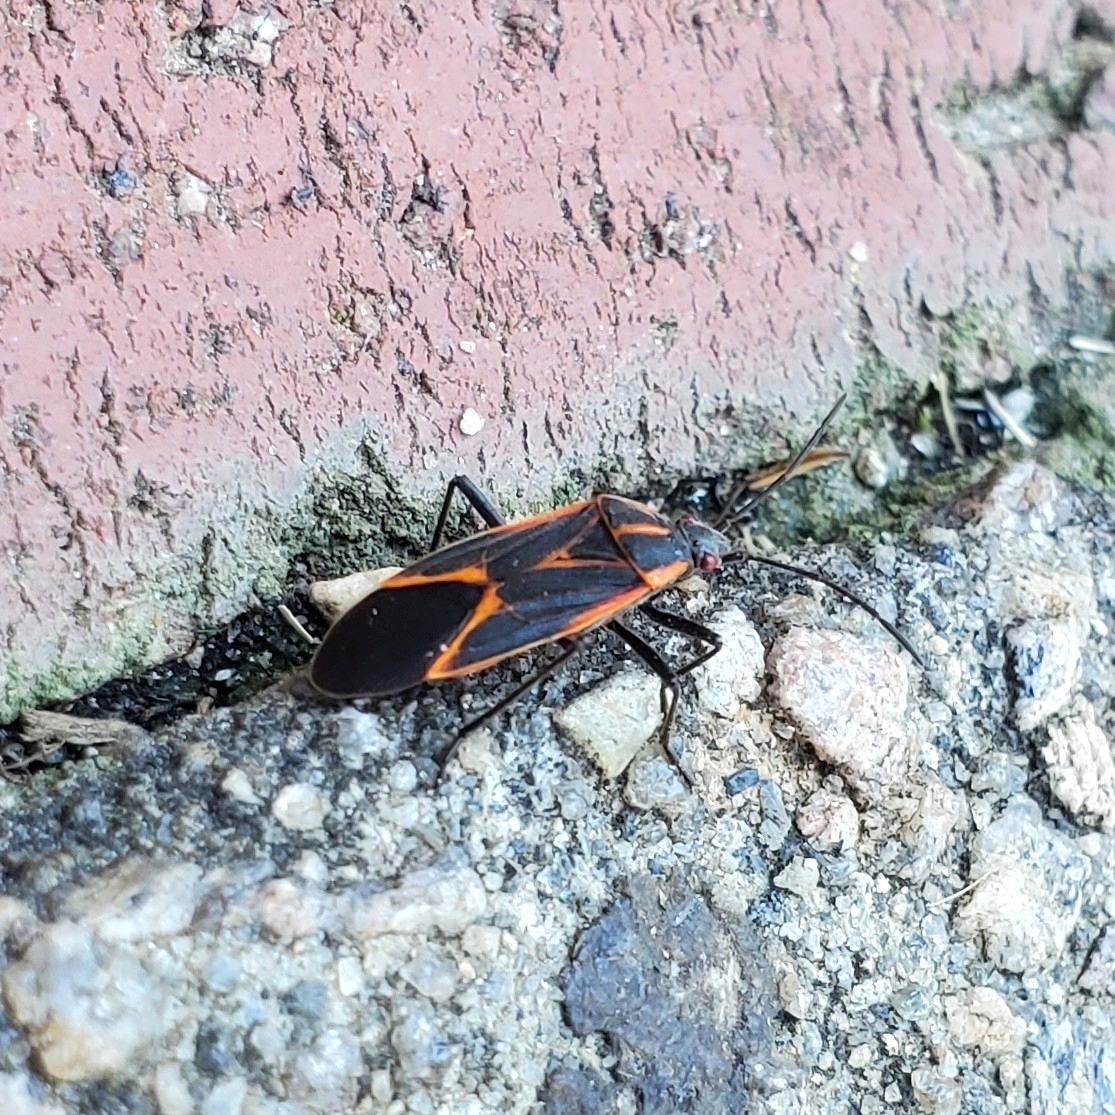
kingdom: Animalia
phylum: Arthropoda
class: Insecta
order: Hemiptera
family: Rhopalidae
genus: Boisea
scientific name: Boisea trivittata
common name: Boxelder bug
